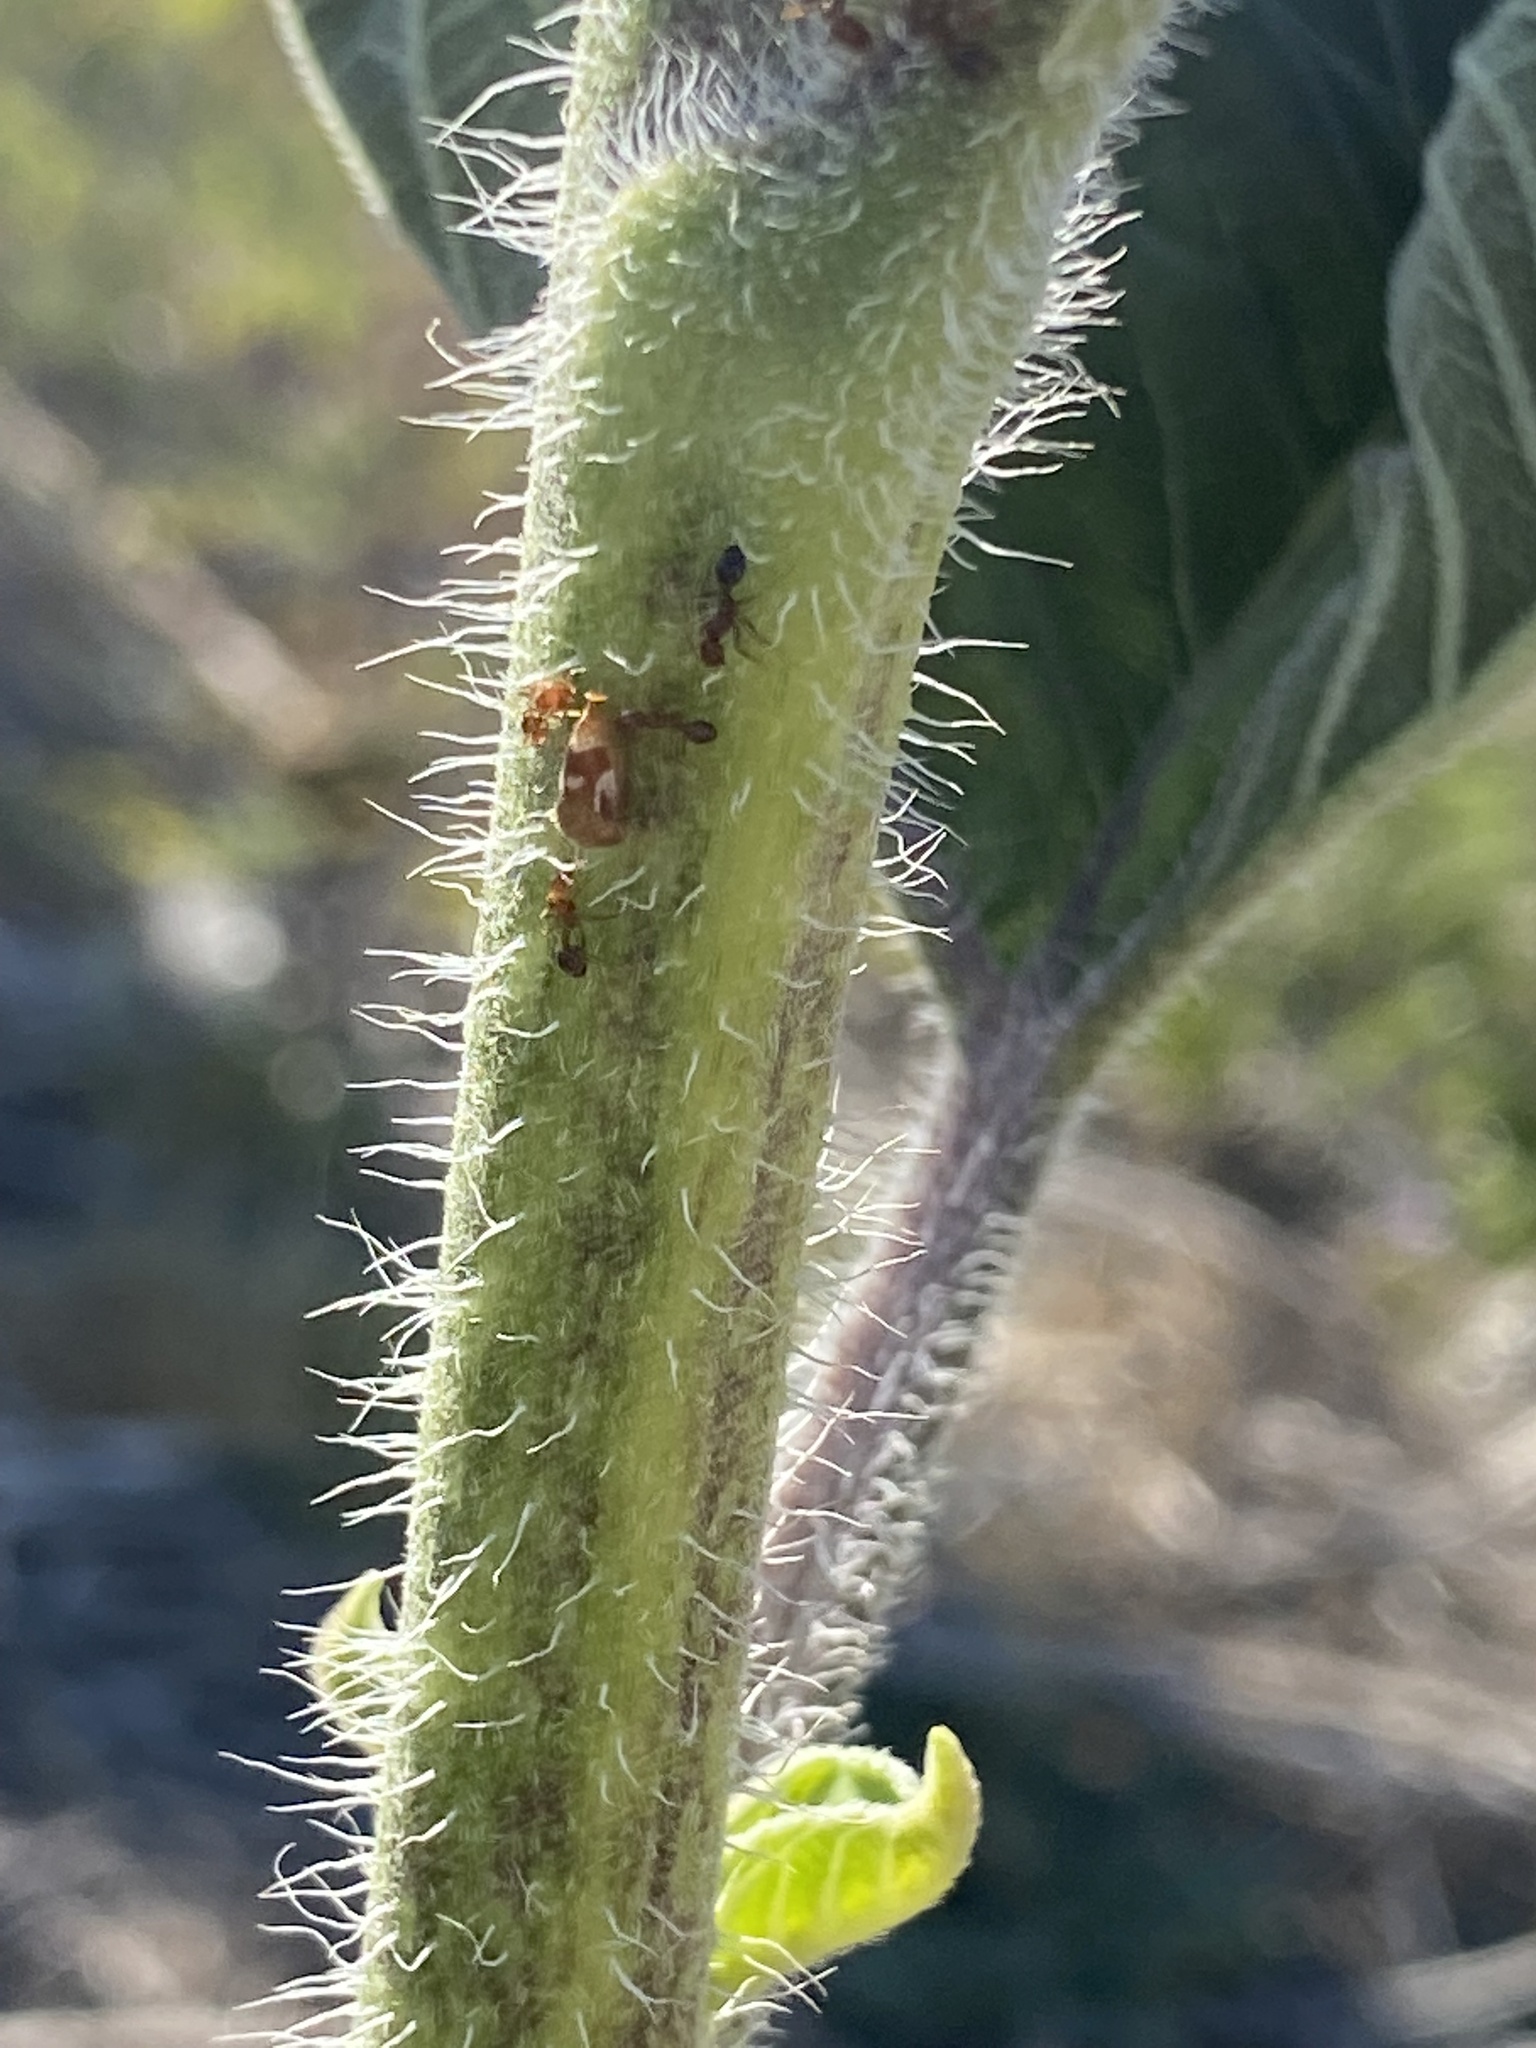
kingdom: Animalia
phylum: Arthropoda
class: Insecta
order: Hymenoptera
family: Formicidae
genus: Solenopsis
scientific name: Solenopsis invicta
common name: Red imported fire ant
